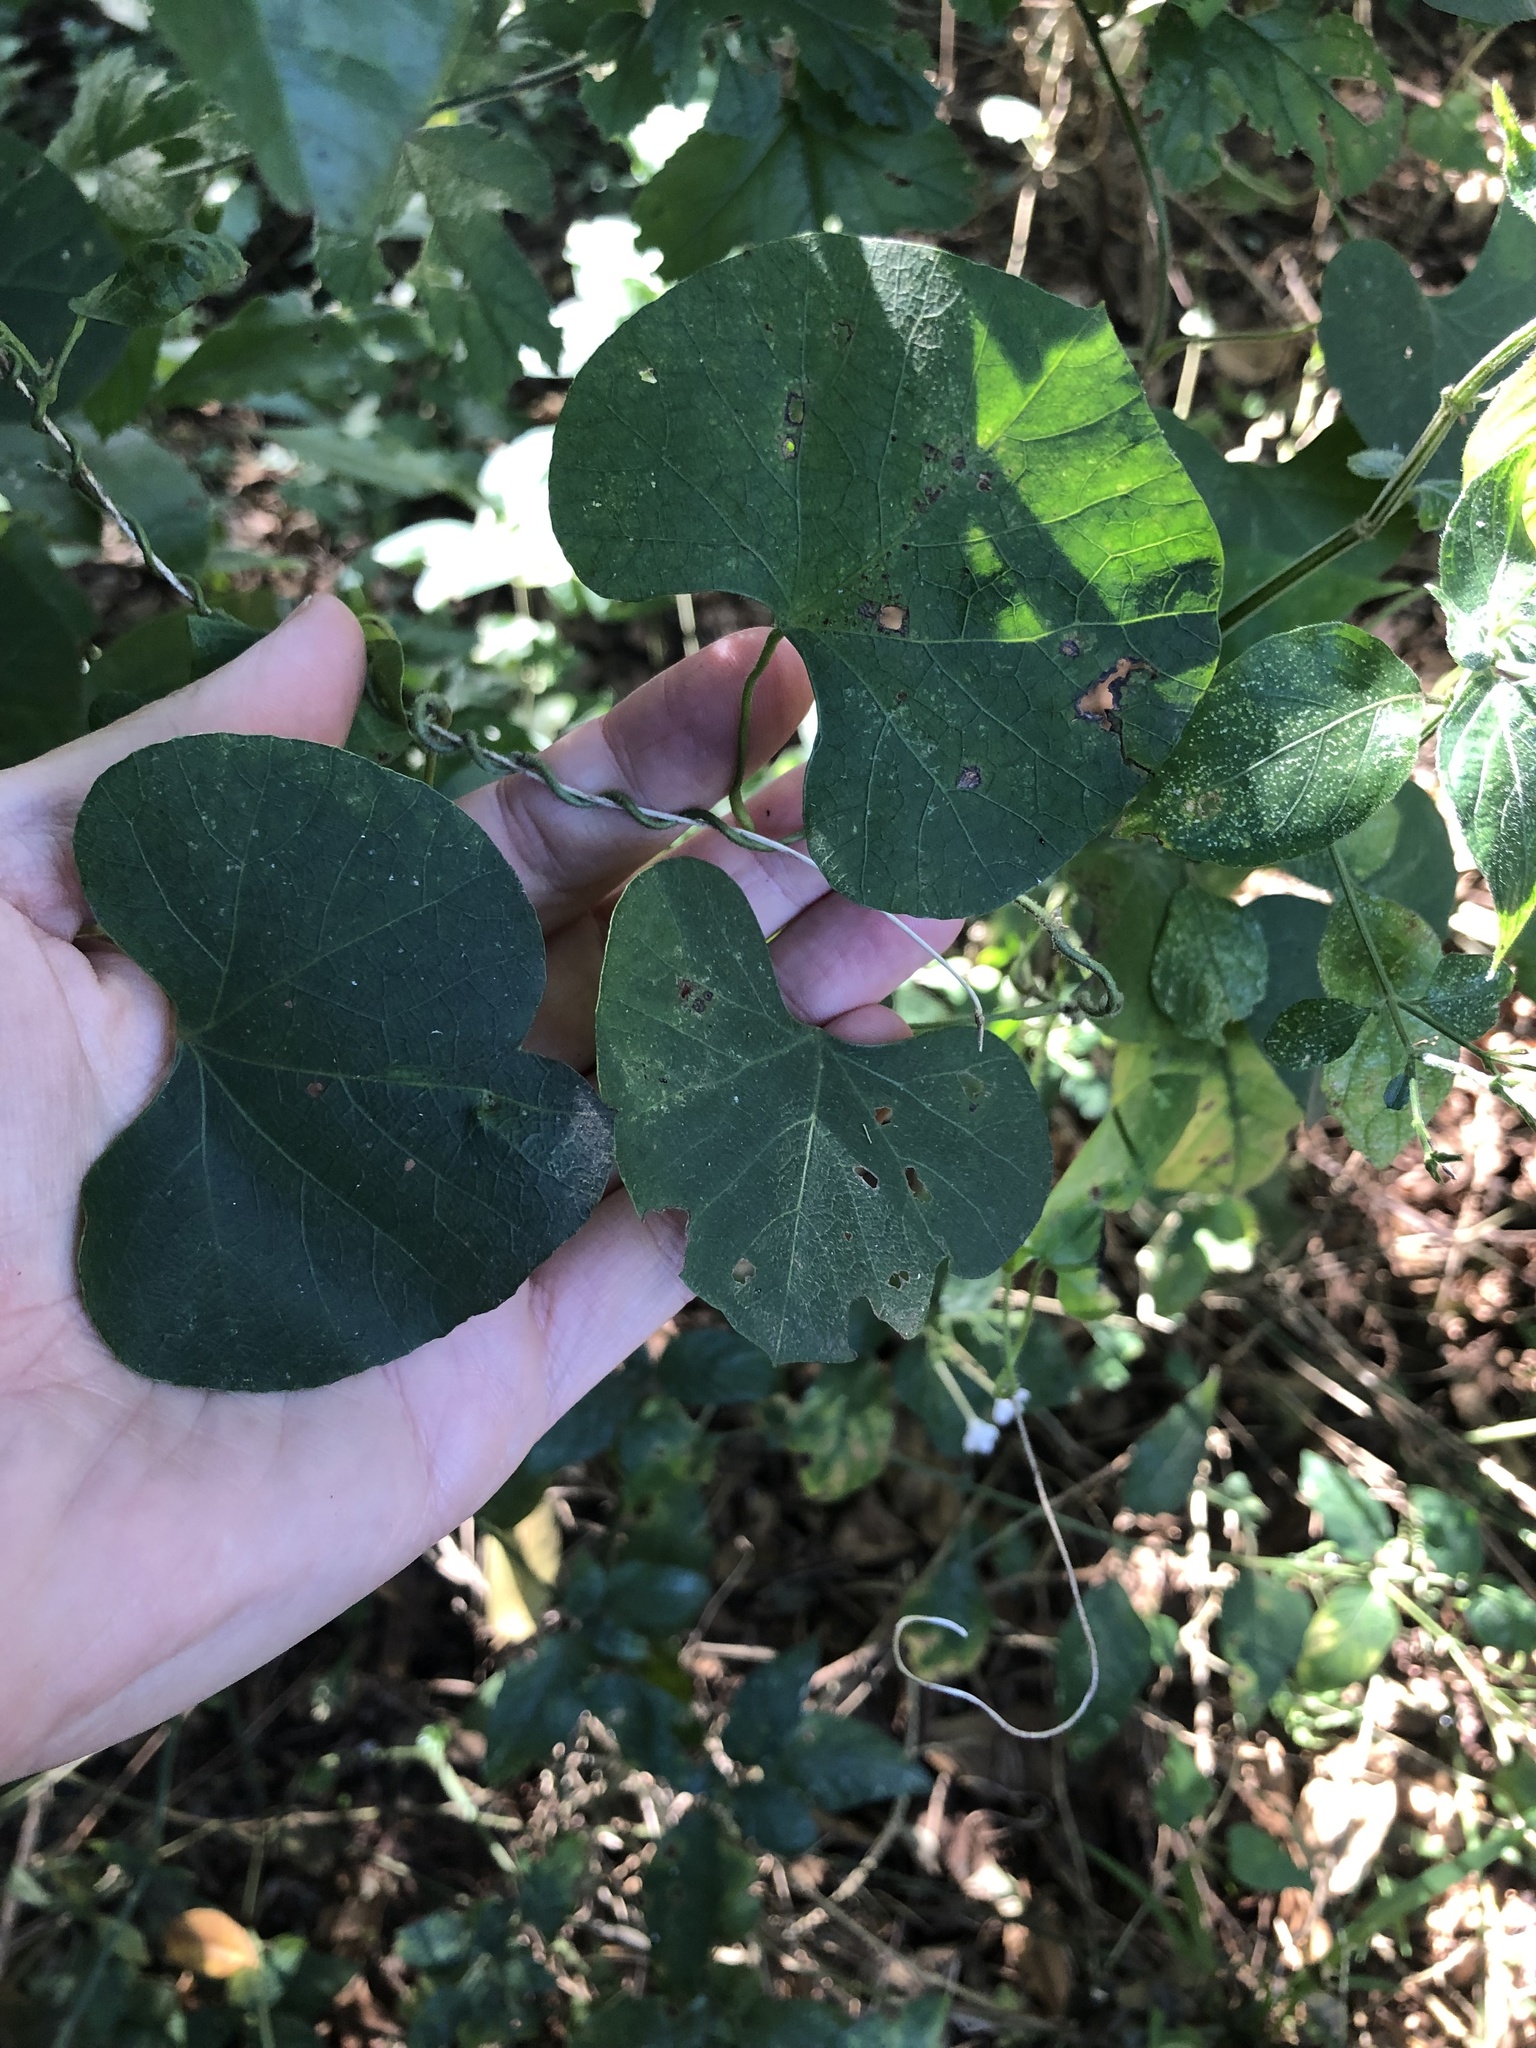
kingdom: Plantae
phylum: Tracheophyta
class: Magnoliopsida
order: Ranunculales
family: Menispermaceae
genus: Cissampelos
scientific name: Cissampelos torulosa
